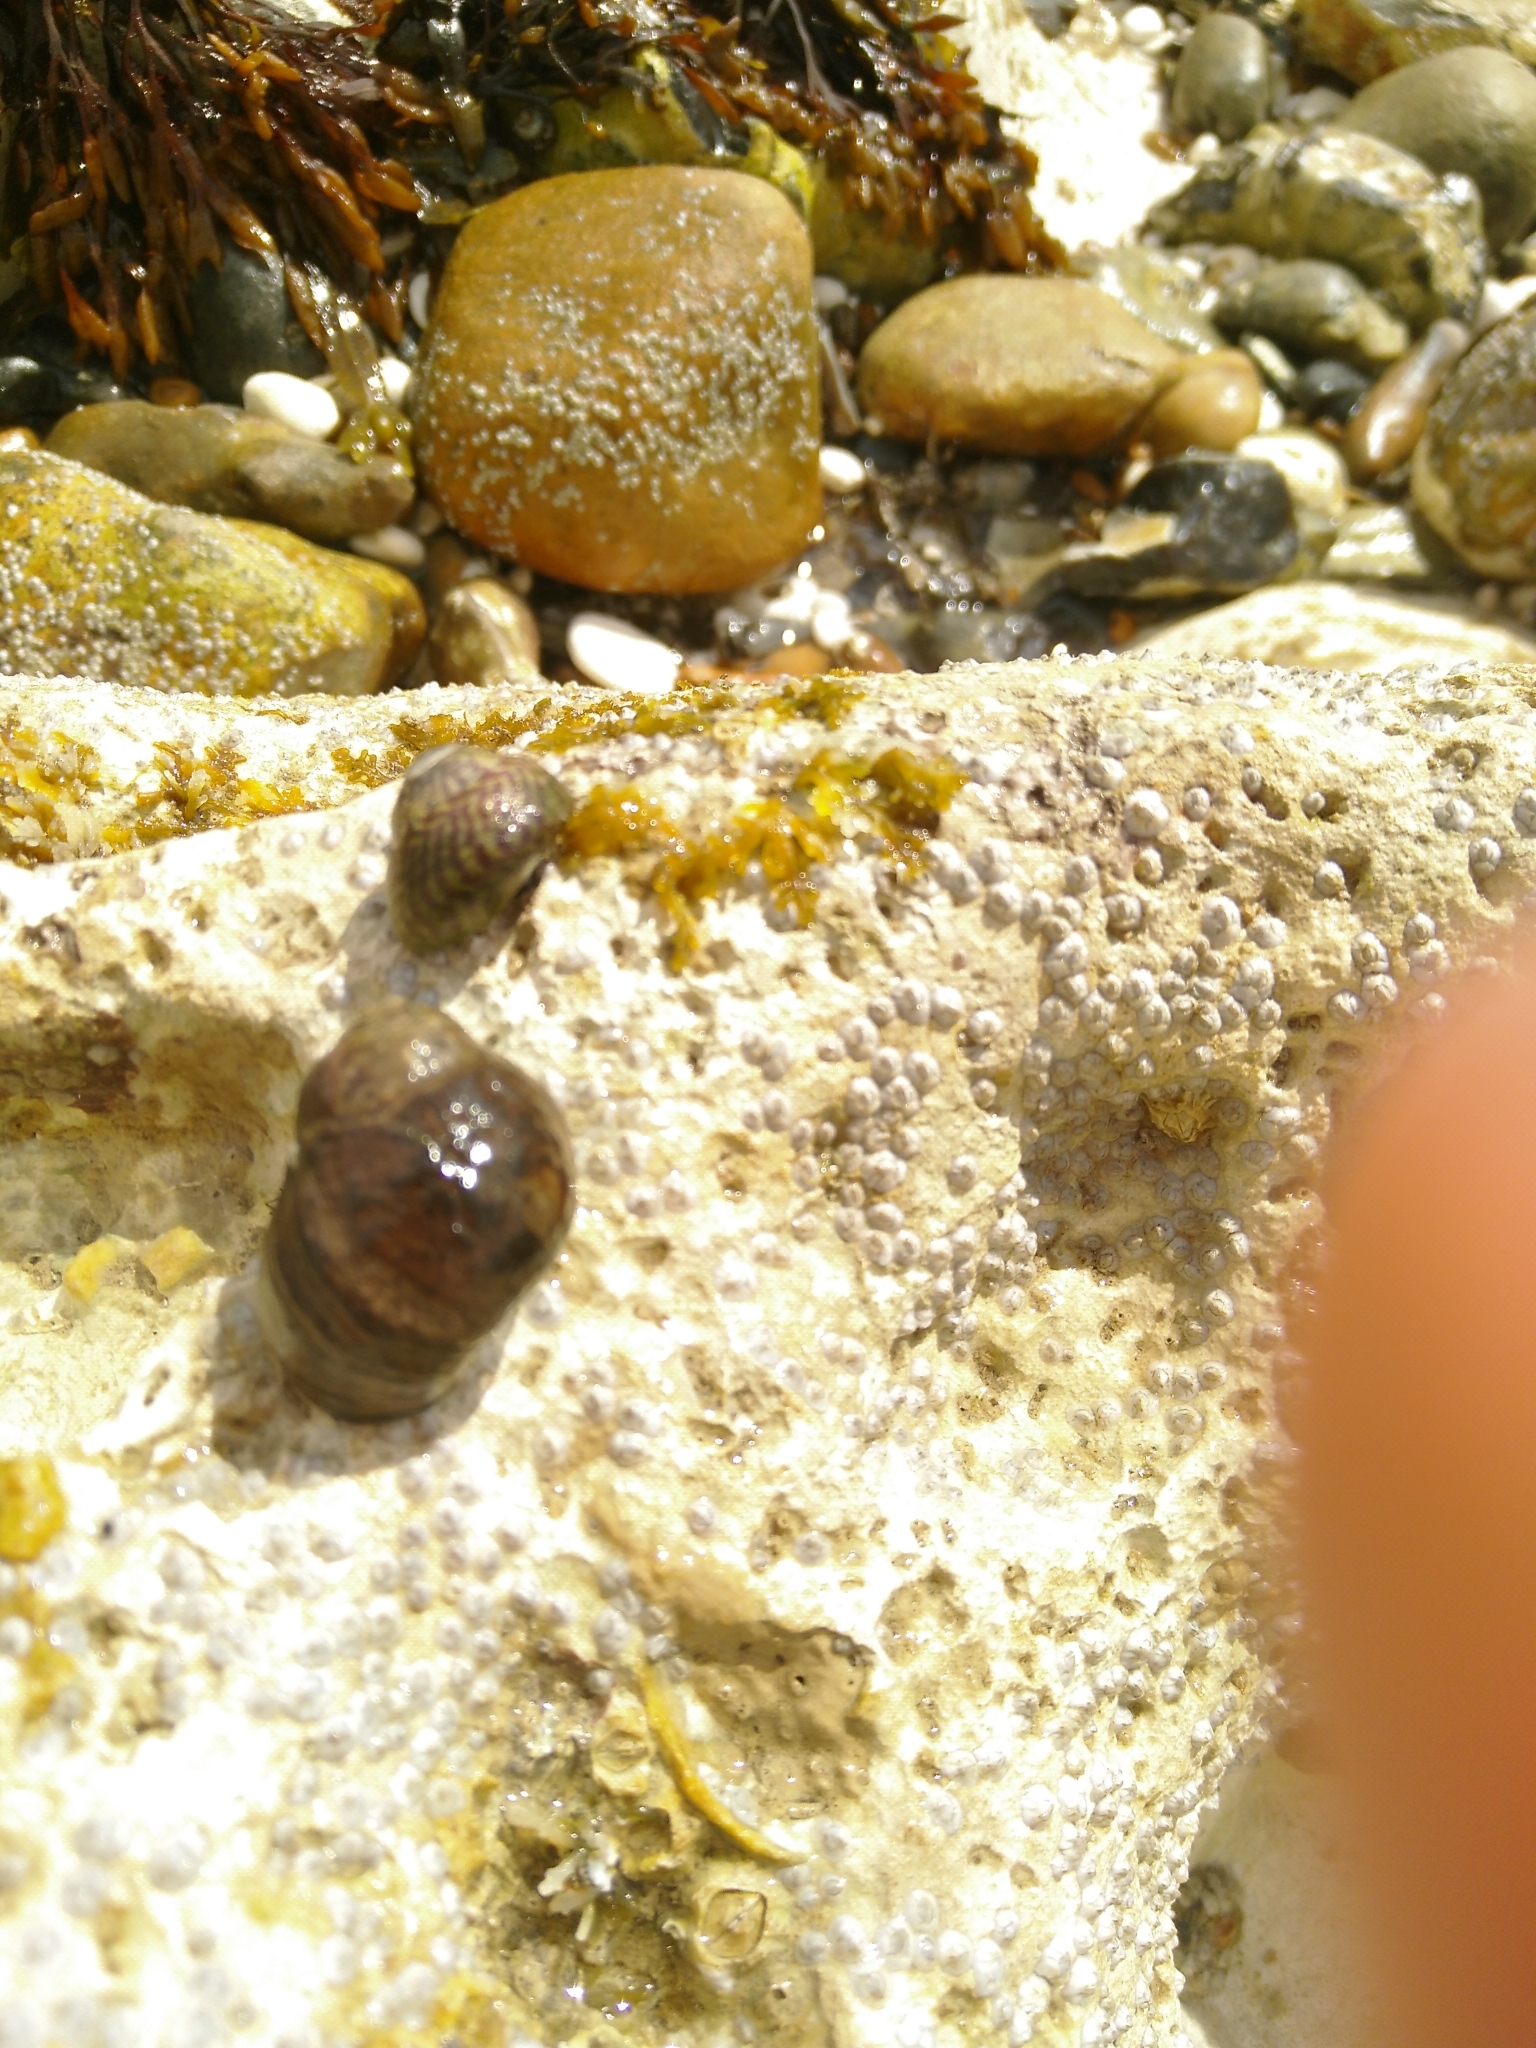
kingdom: Animalia
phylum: Mollusca
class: Gastropoda
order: Littorinimorpha
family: Littorinidae
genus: Littorina
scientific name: Littorina littorea
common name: Common periwinkle
